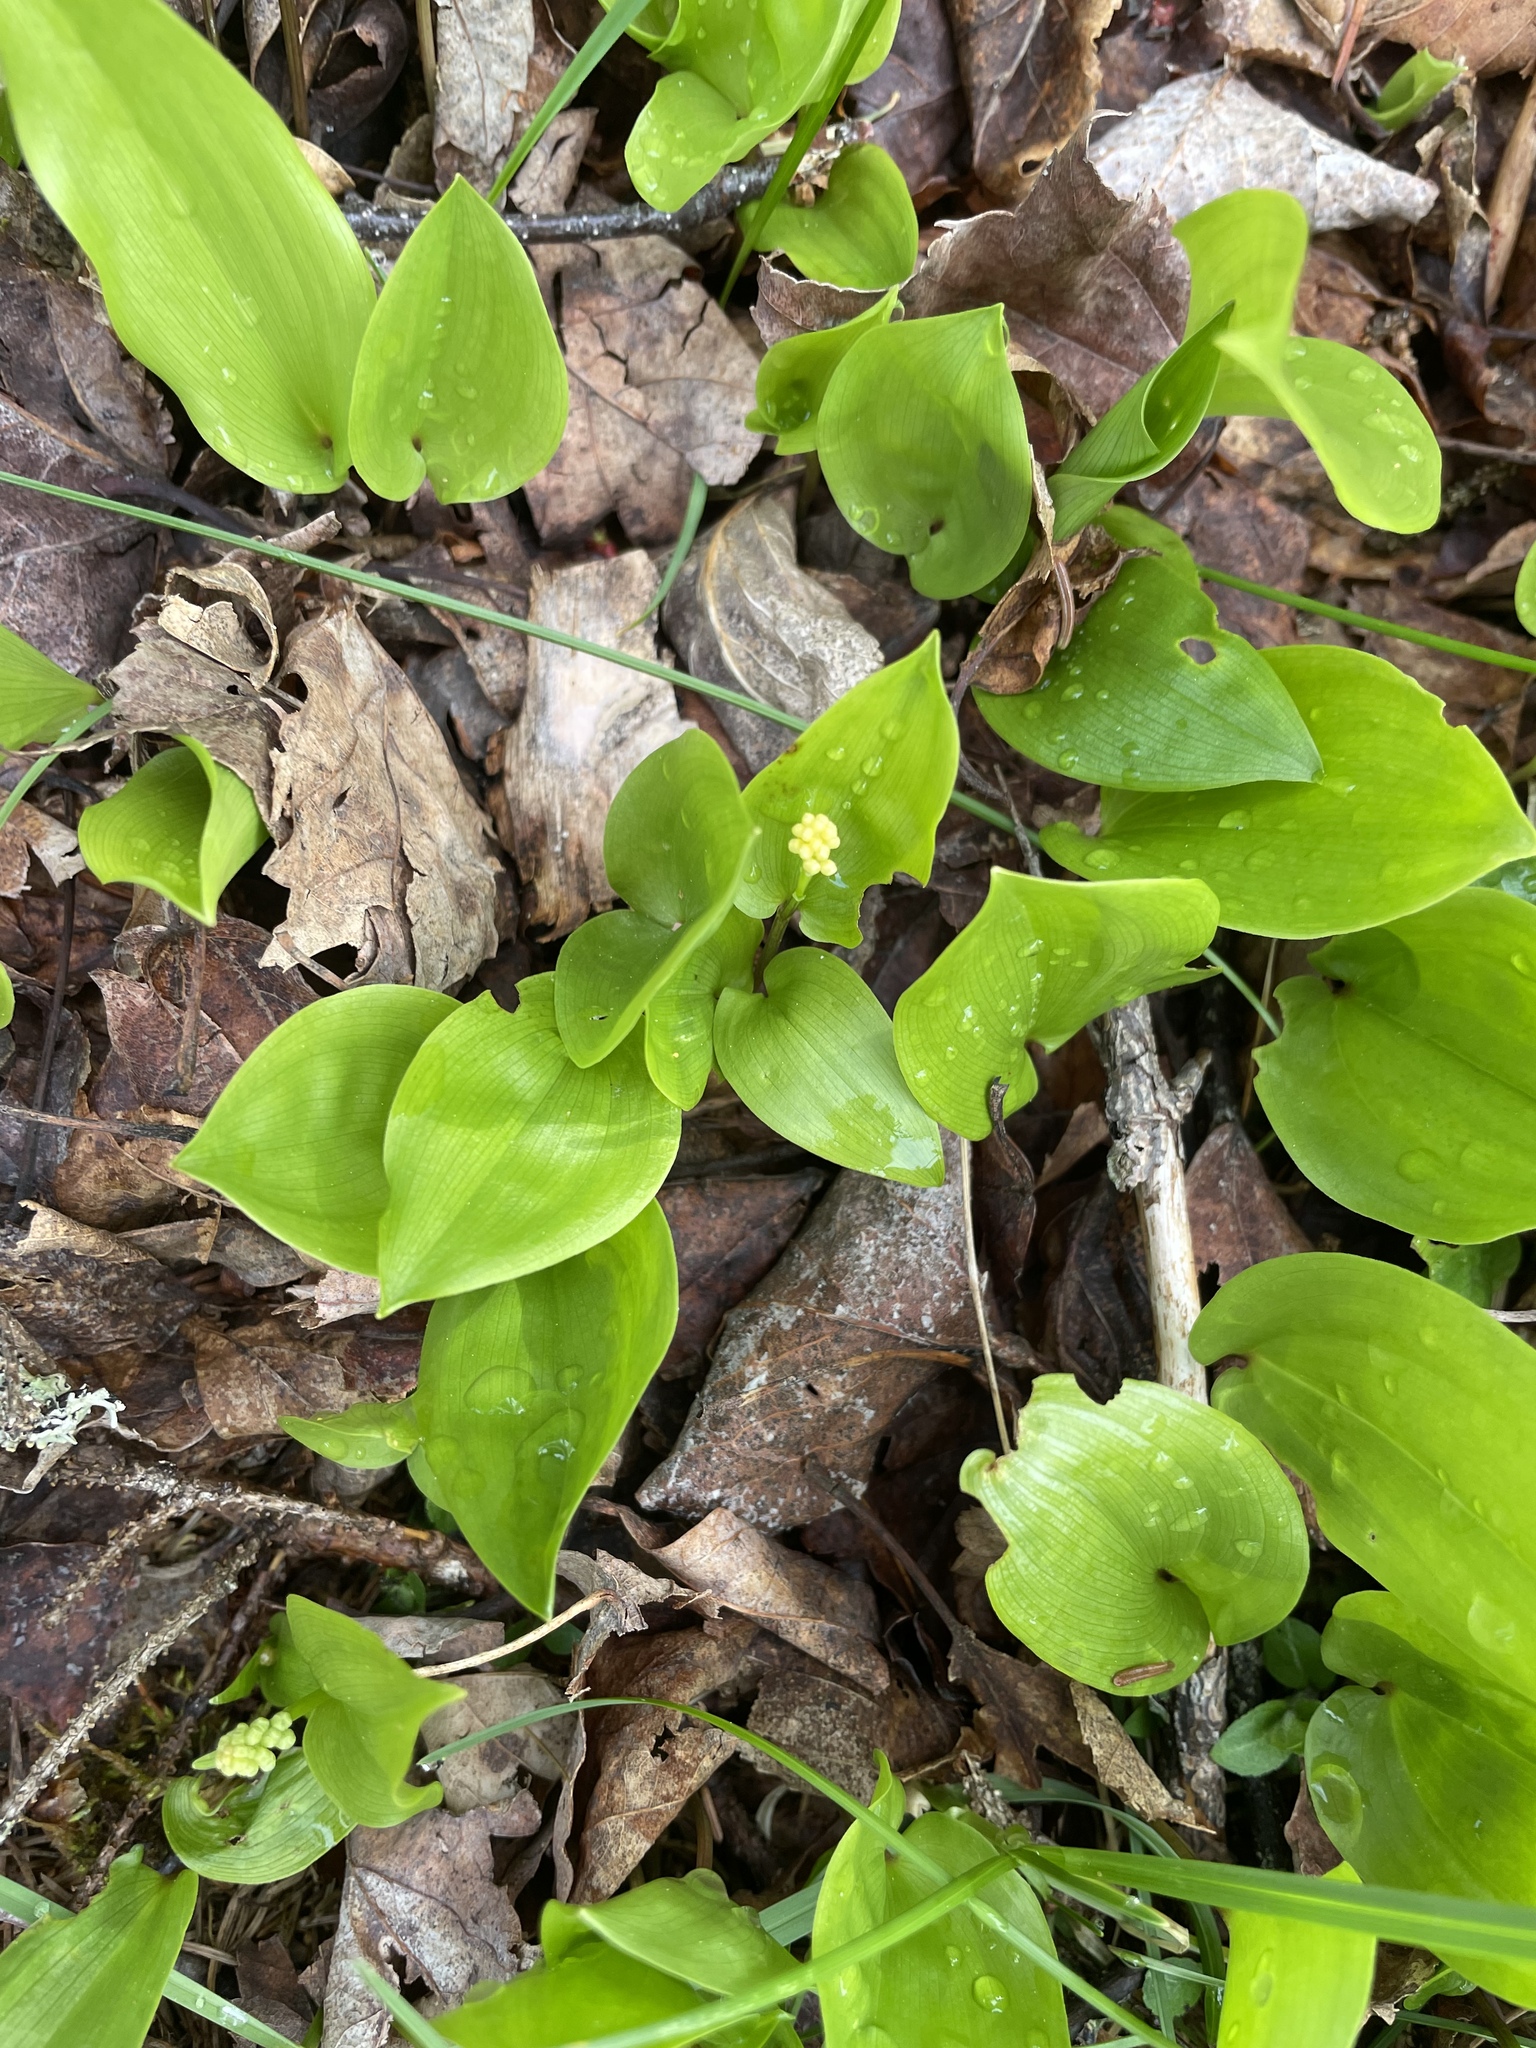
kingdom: Plantae
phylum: Tracheophyta
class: Liliopsida
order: Asparagales
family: Asparagaceae
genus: Maianthemum
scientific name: Maianthemum canadense
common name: False lily-of-the-valley
